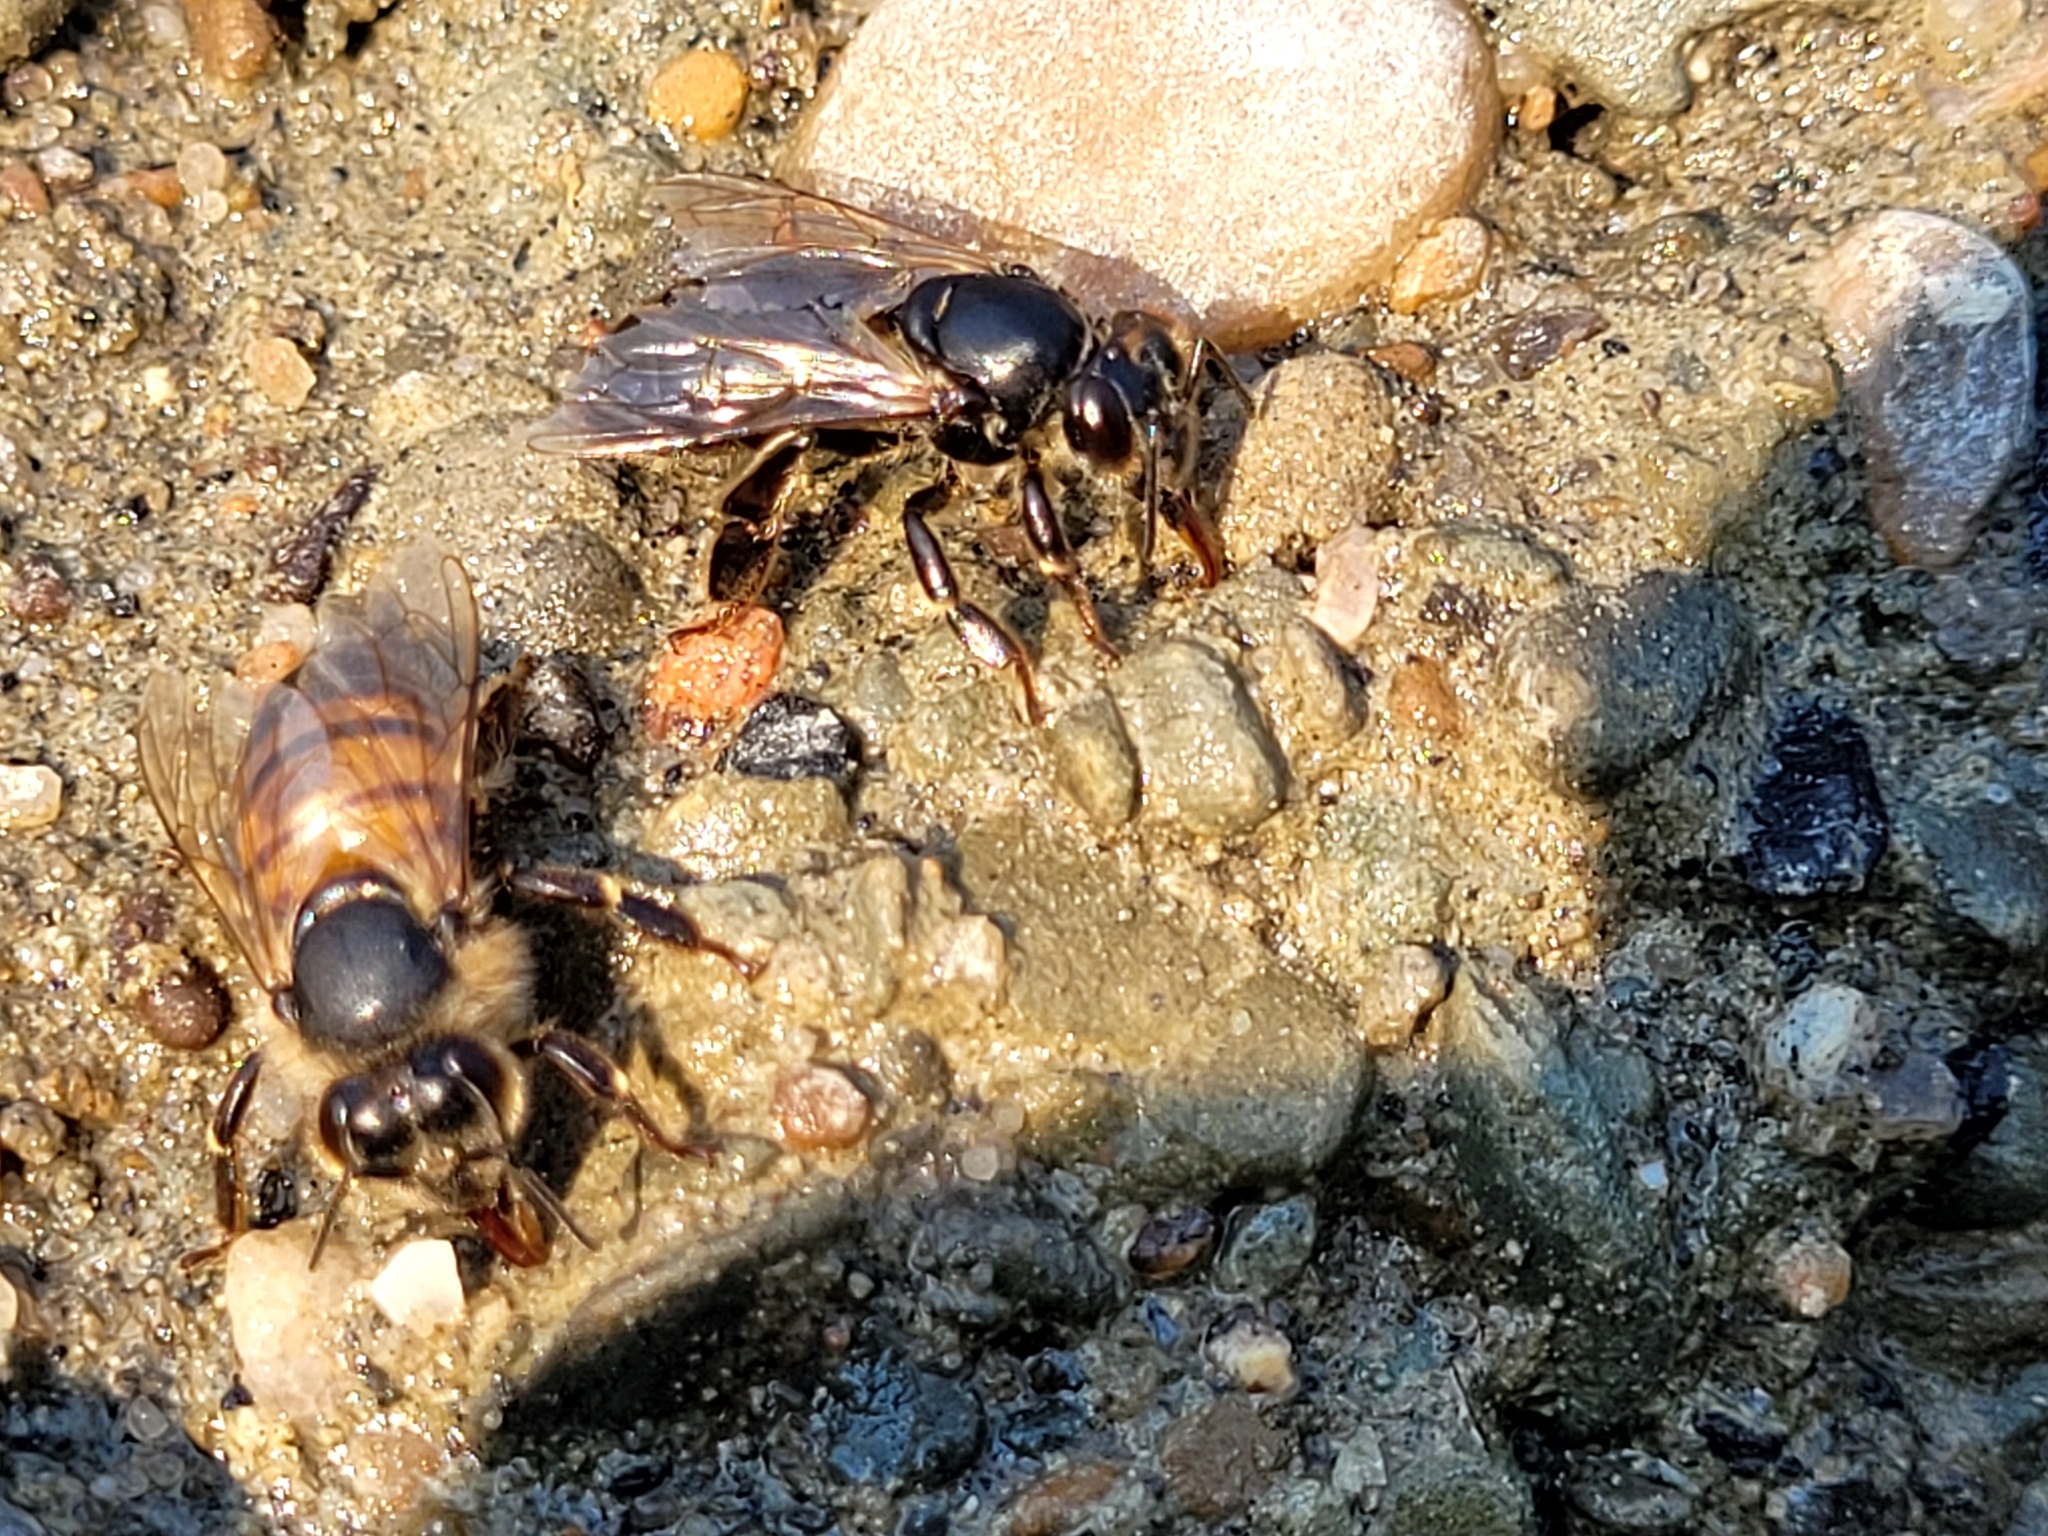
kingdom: Animalia
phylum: Arthropoda
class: Insecta
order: Hymenoptera
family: Apidae
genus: Apis
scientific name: Apis mellifera
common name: Honey bee
